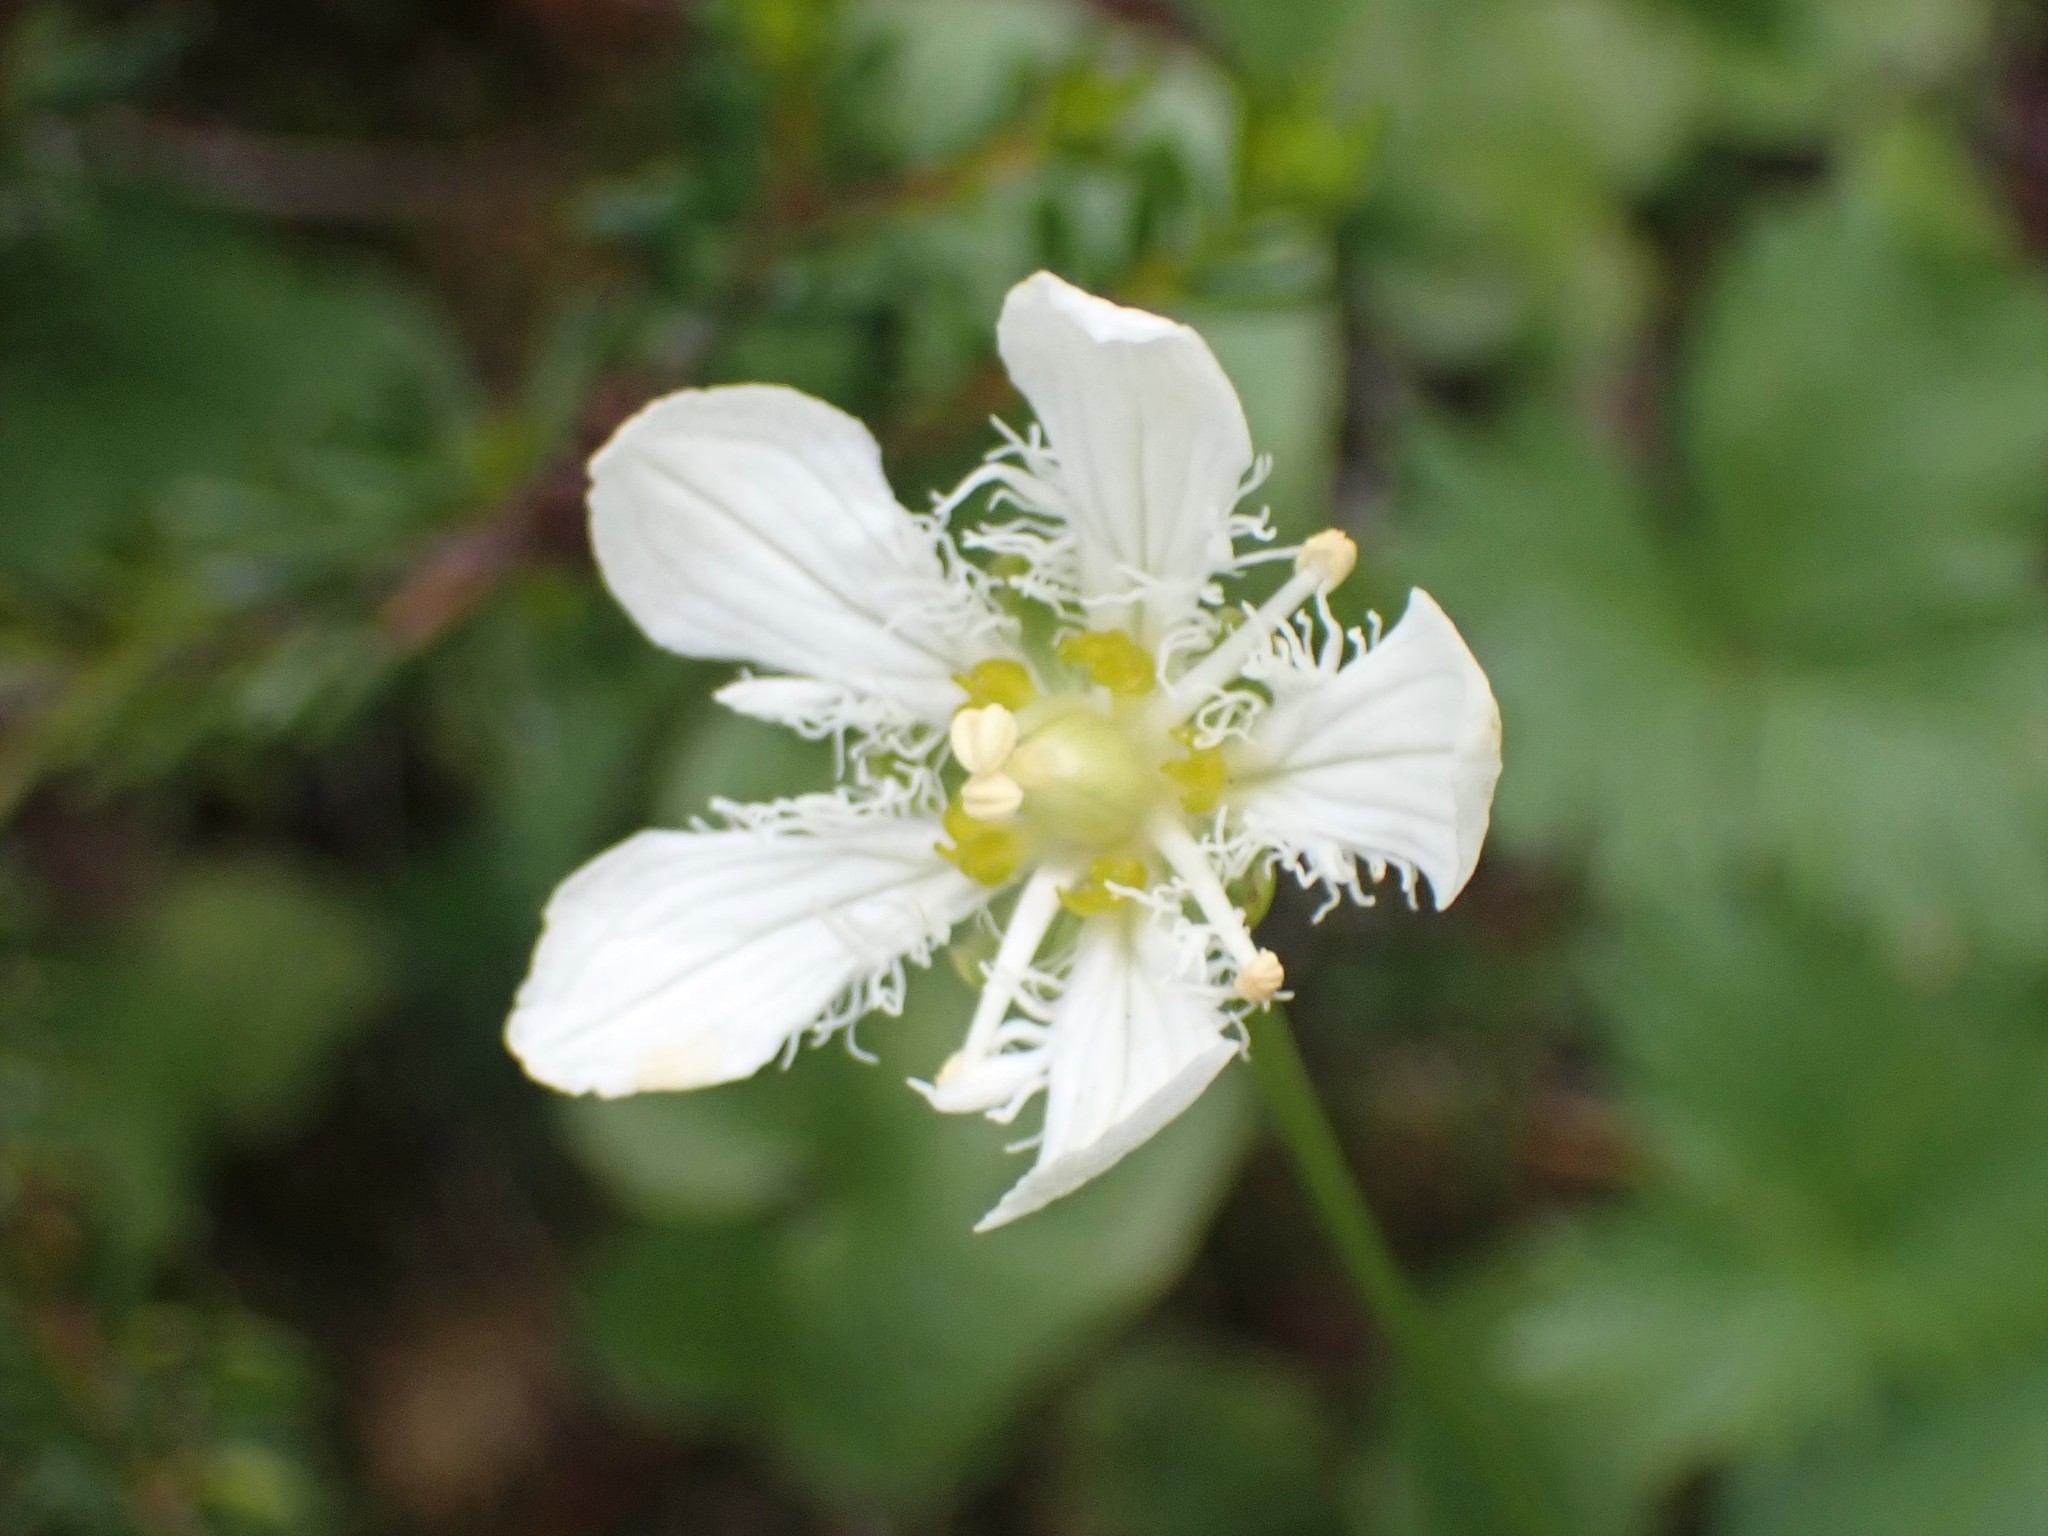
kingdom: Plantae
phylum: Tracheophyta
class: Magnoliopsida
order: Celastrales
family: Parnassiaceae
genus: Parnassia
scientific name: Parnassia fimbriata
